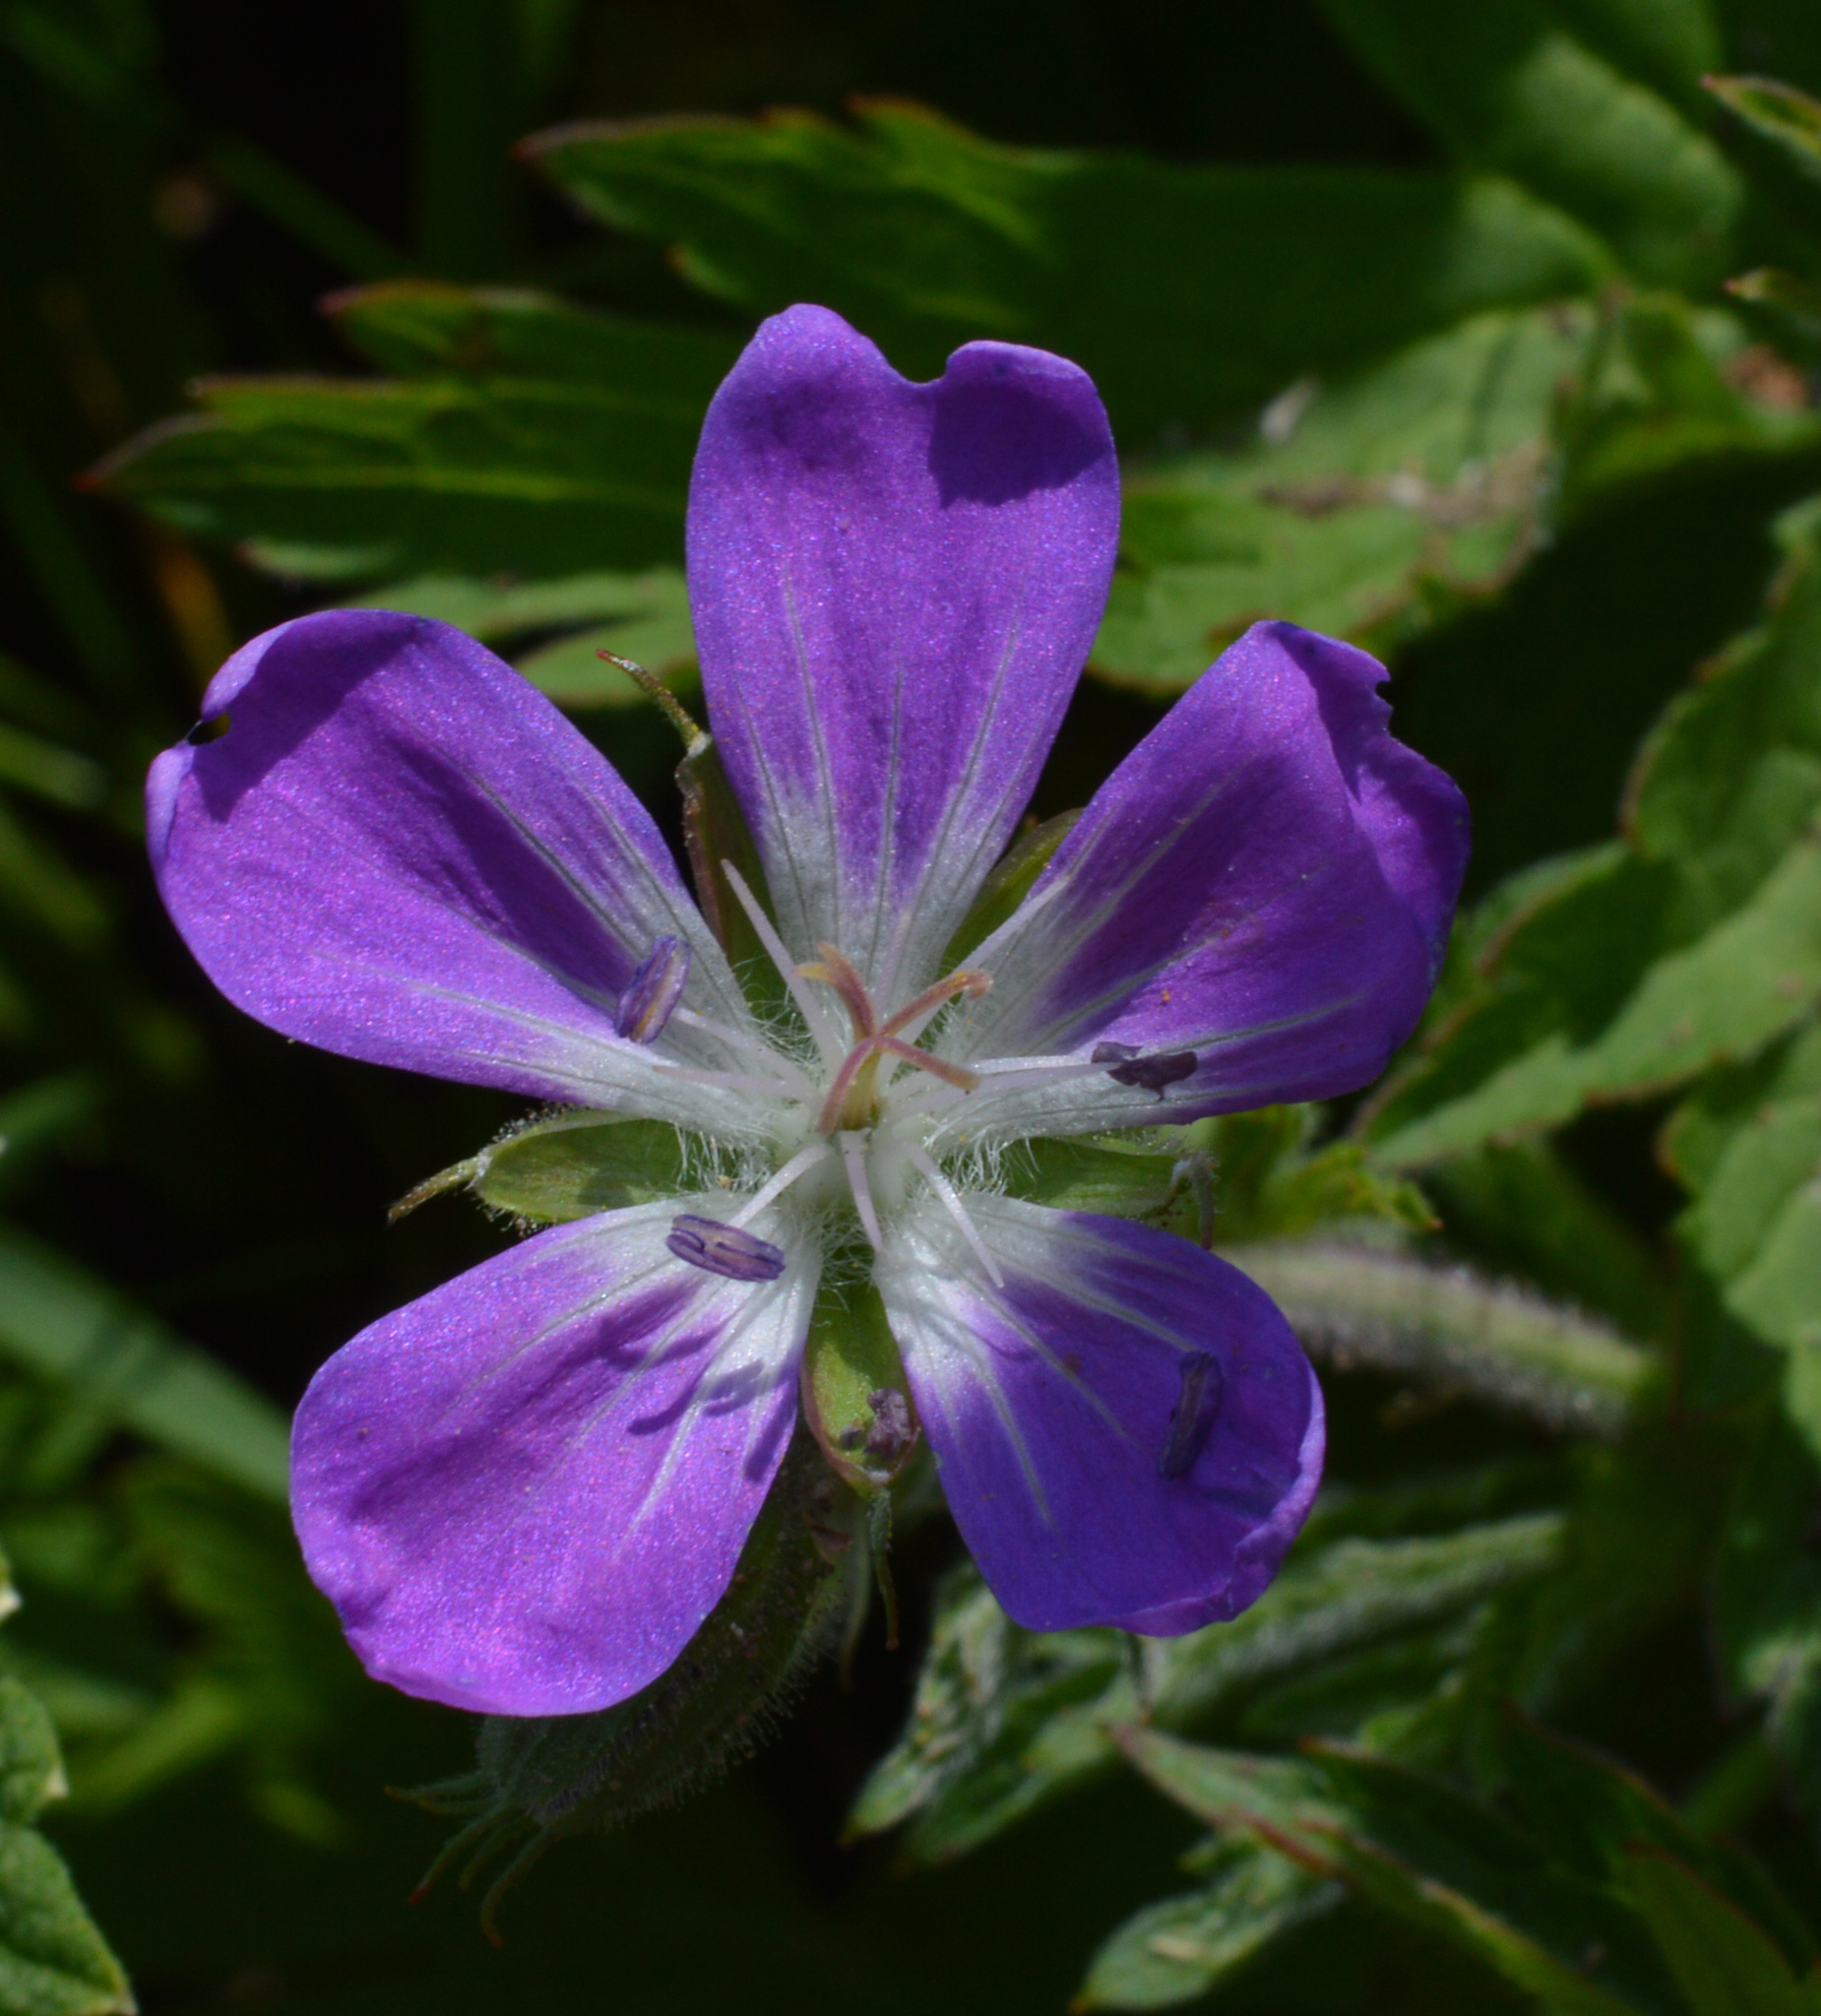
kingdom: Plantae
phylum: Tracheophyta
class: Magnoliopsida
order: Geraniales
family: Geraniaceae
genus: Geranium
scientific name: Geranium sylvaticum
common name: Wood crane's-bill
